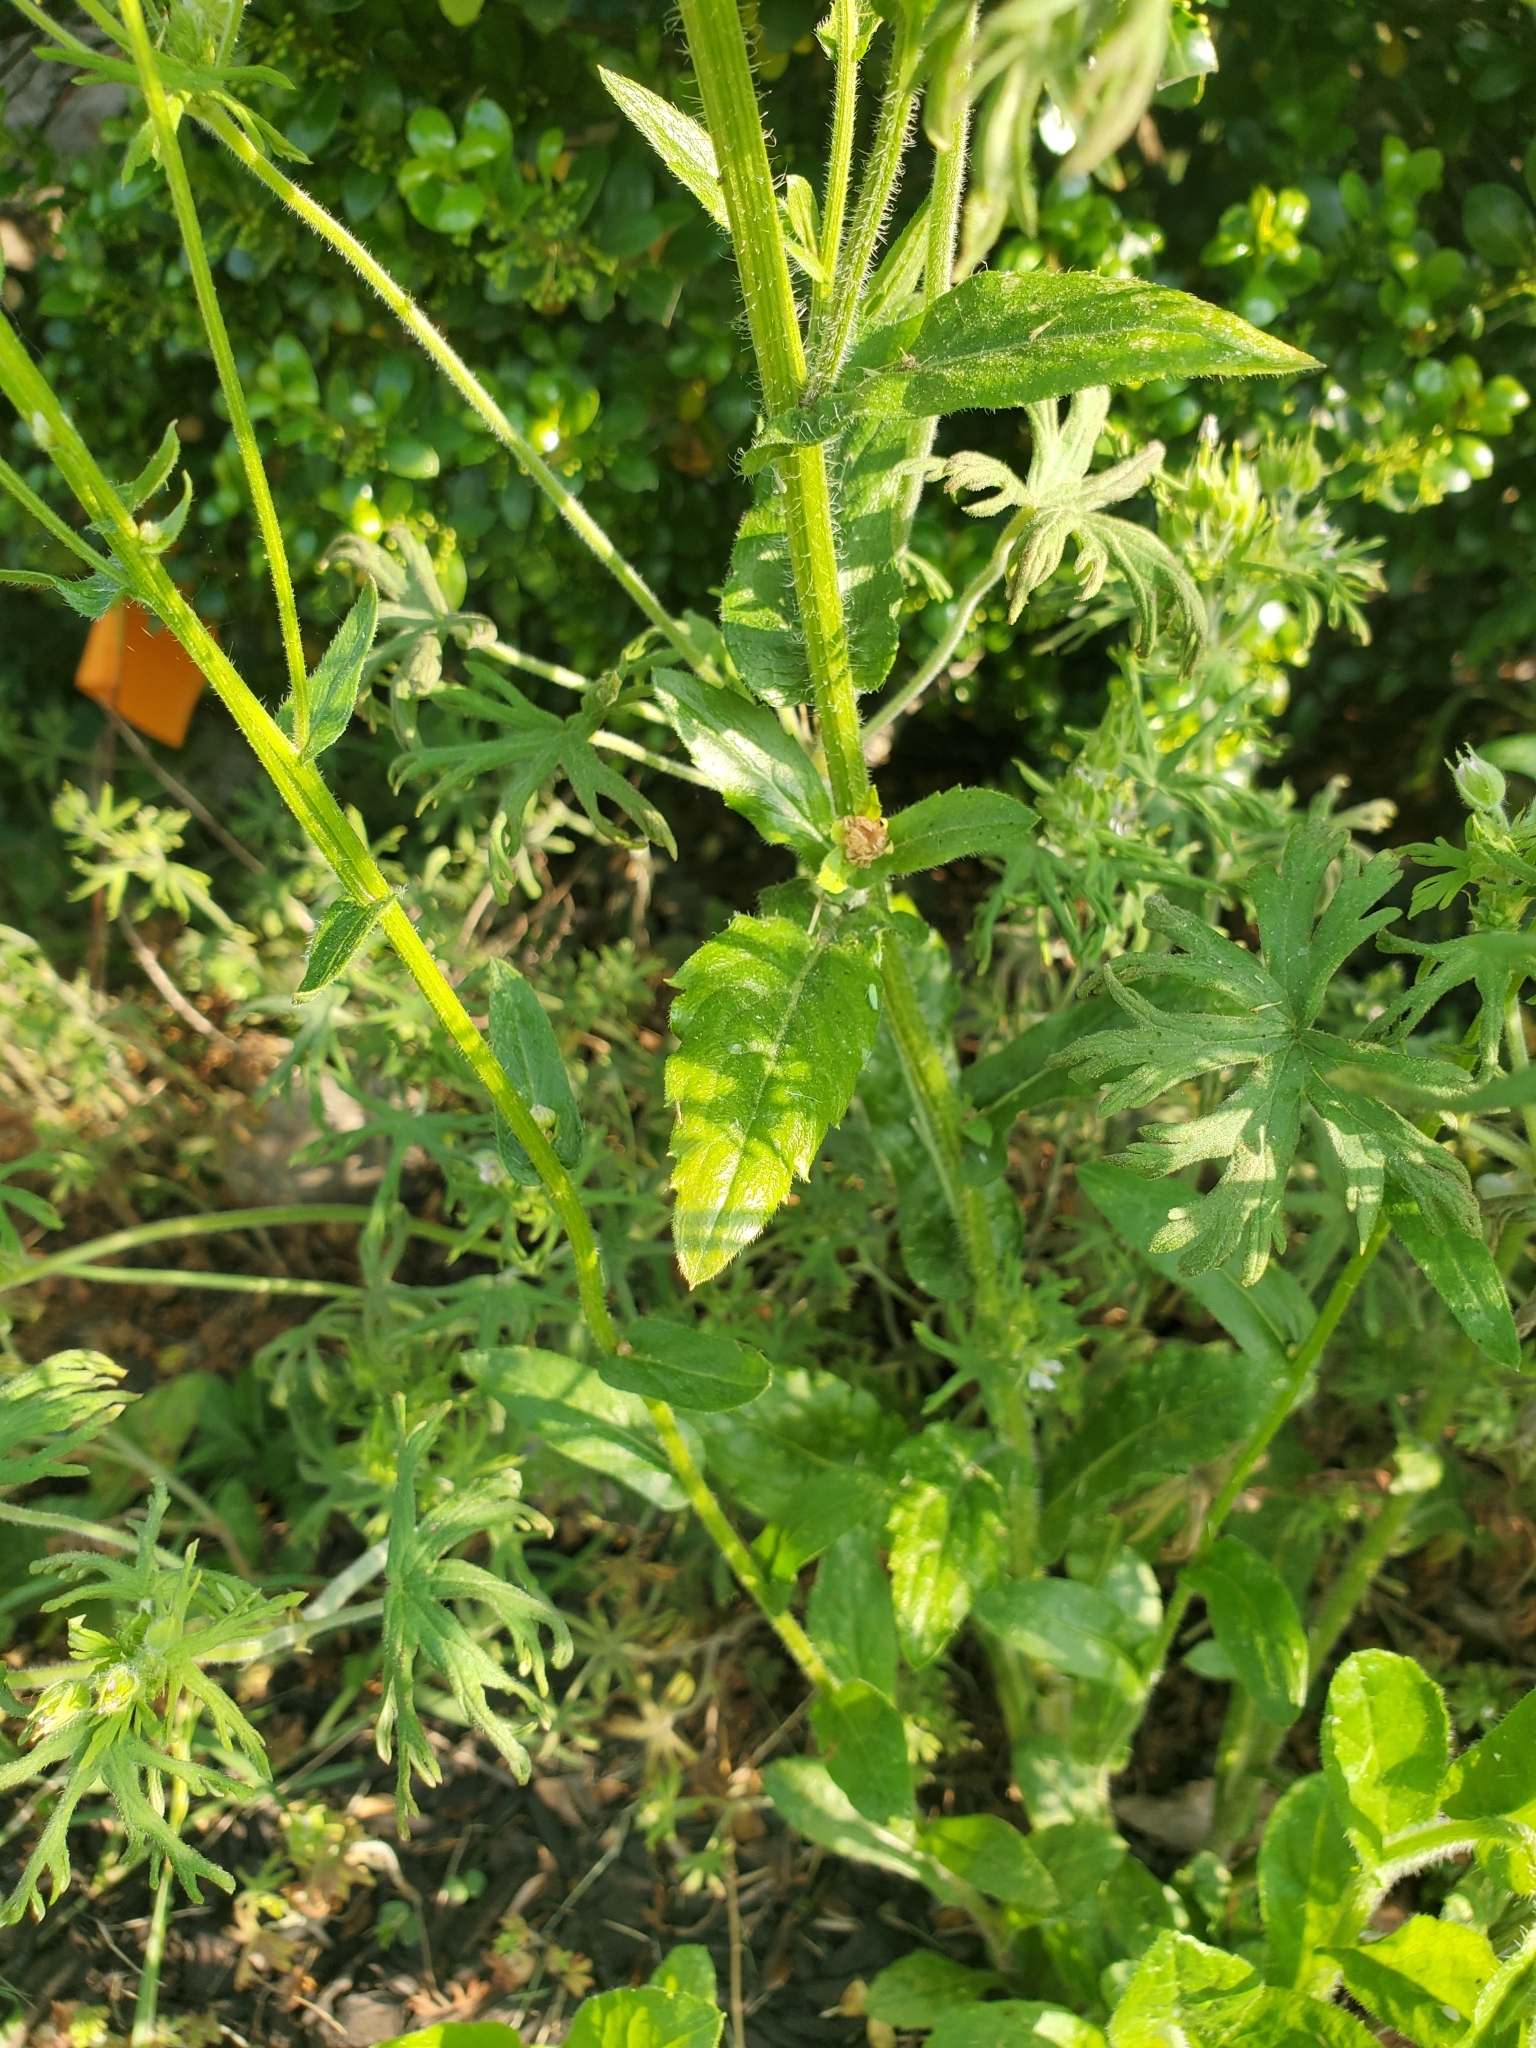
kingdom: Plantae
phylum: Tracheophyta
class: Magnoliopsida
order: Asterales
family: Asteraceae
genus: Erigeron
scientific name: Erigeron philadelphicus
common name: Robin's-plantain
